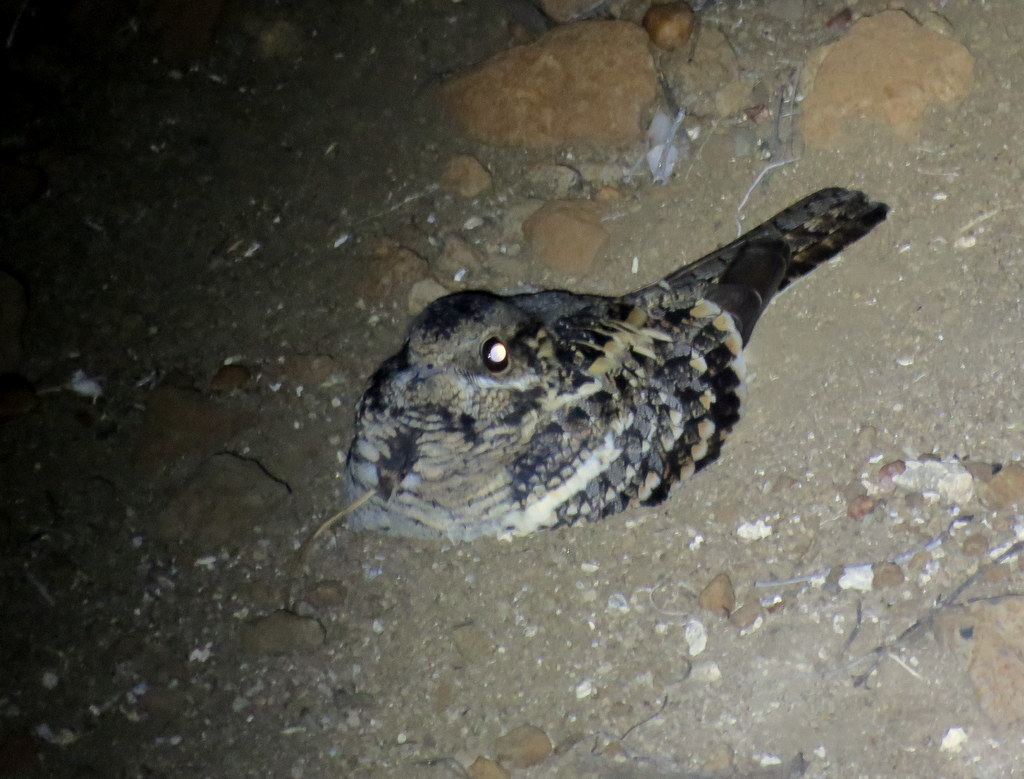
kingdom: Animalia
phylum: Chordata
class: Aves
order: Caprimulgiformes
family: Caprimulgidae
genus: Caprimulgus
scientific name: Caprimulgus fossii
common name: Square-tailed nightjar
